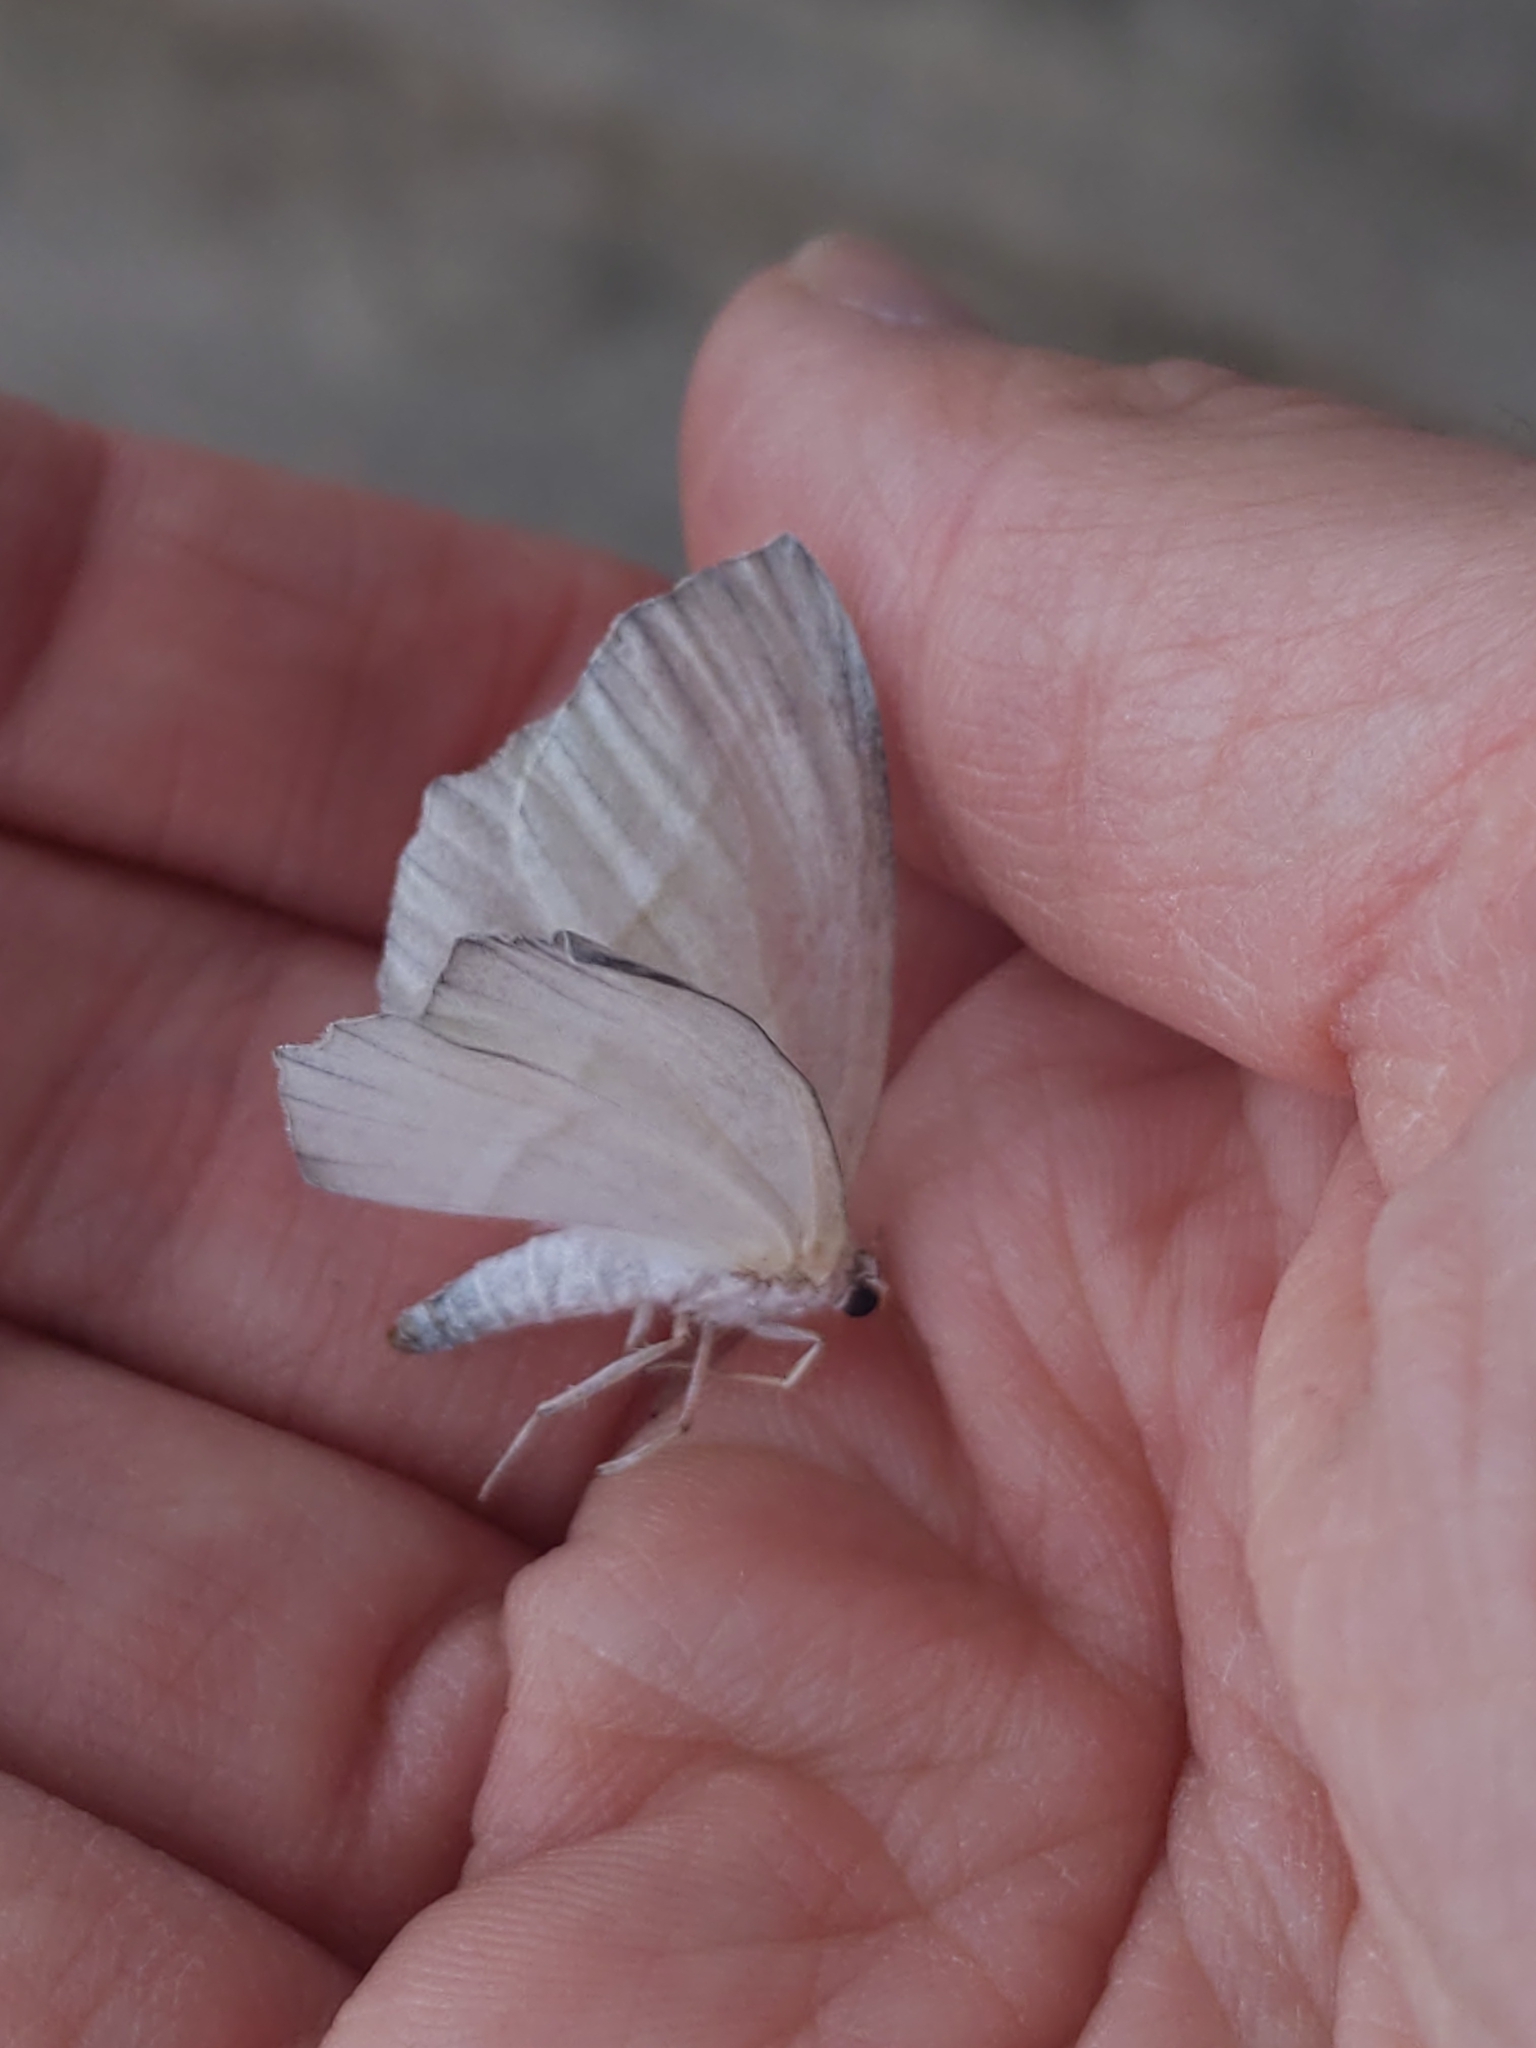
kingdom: Animalia
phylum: Arthropoda
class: Insecta
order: Lepidoptera
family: Geometridae
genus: Campaea
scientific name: Campaea perlata
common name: Fringed looper
